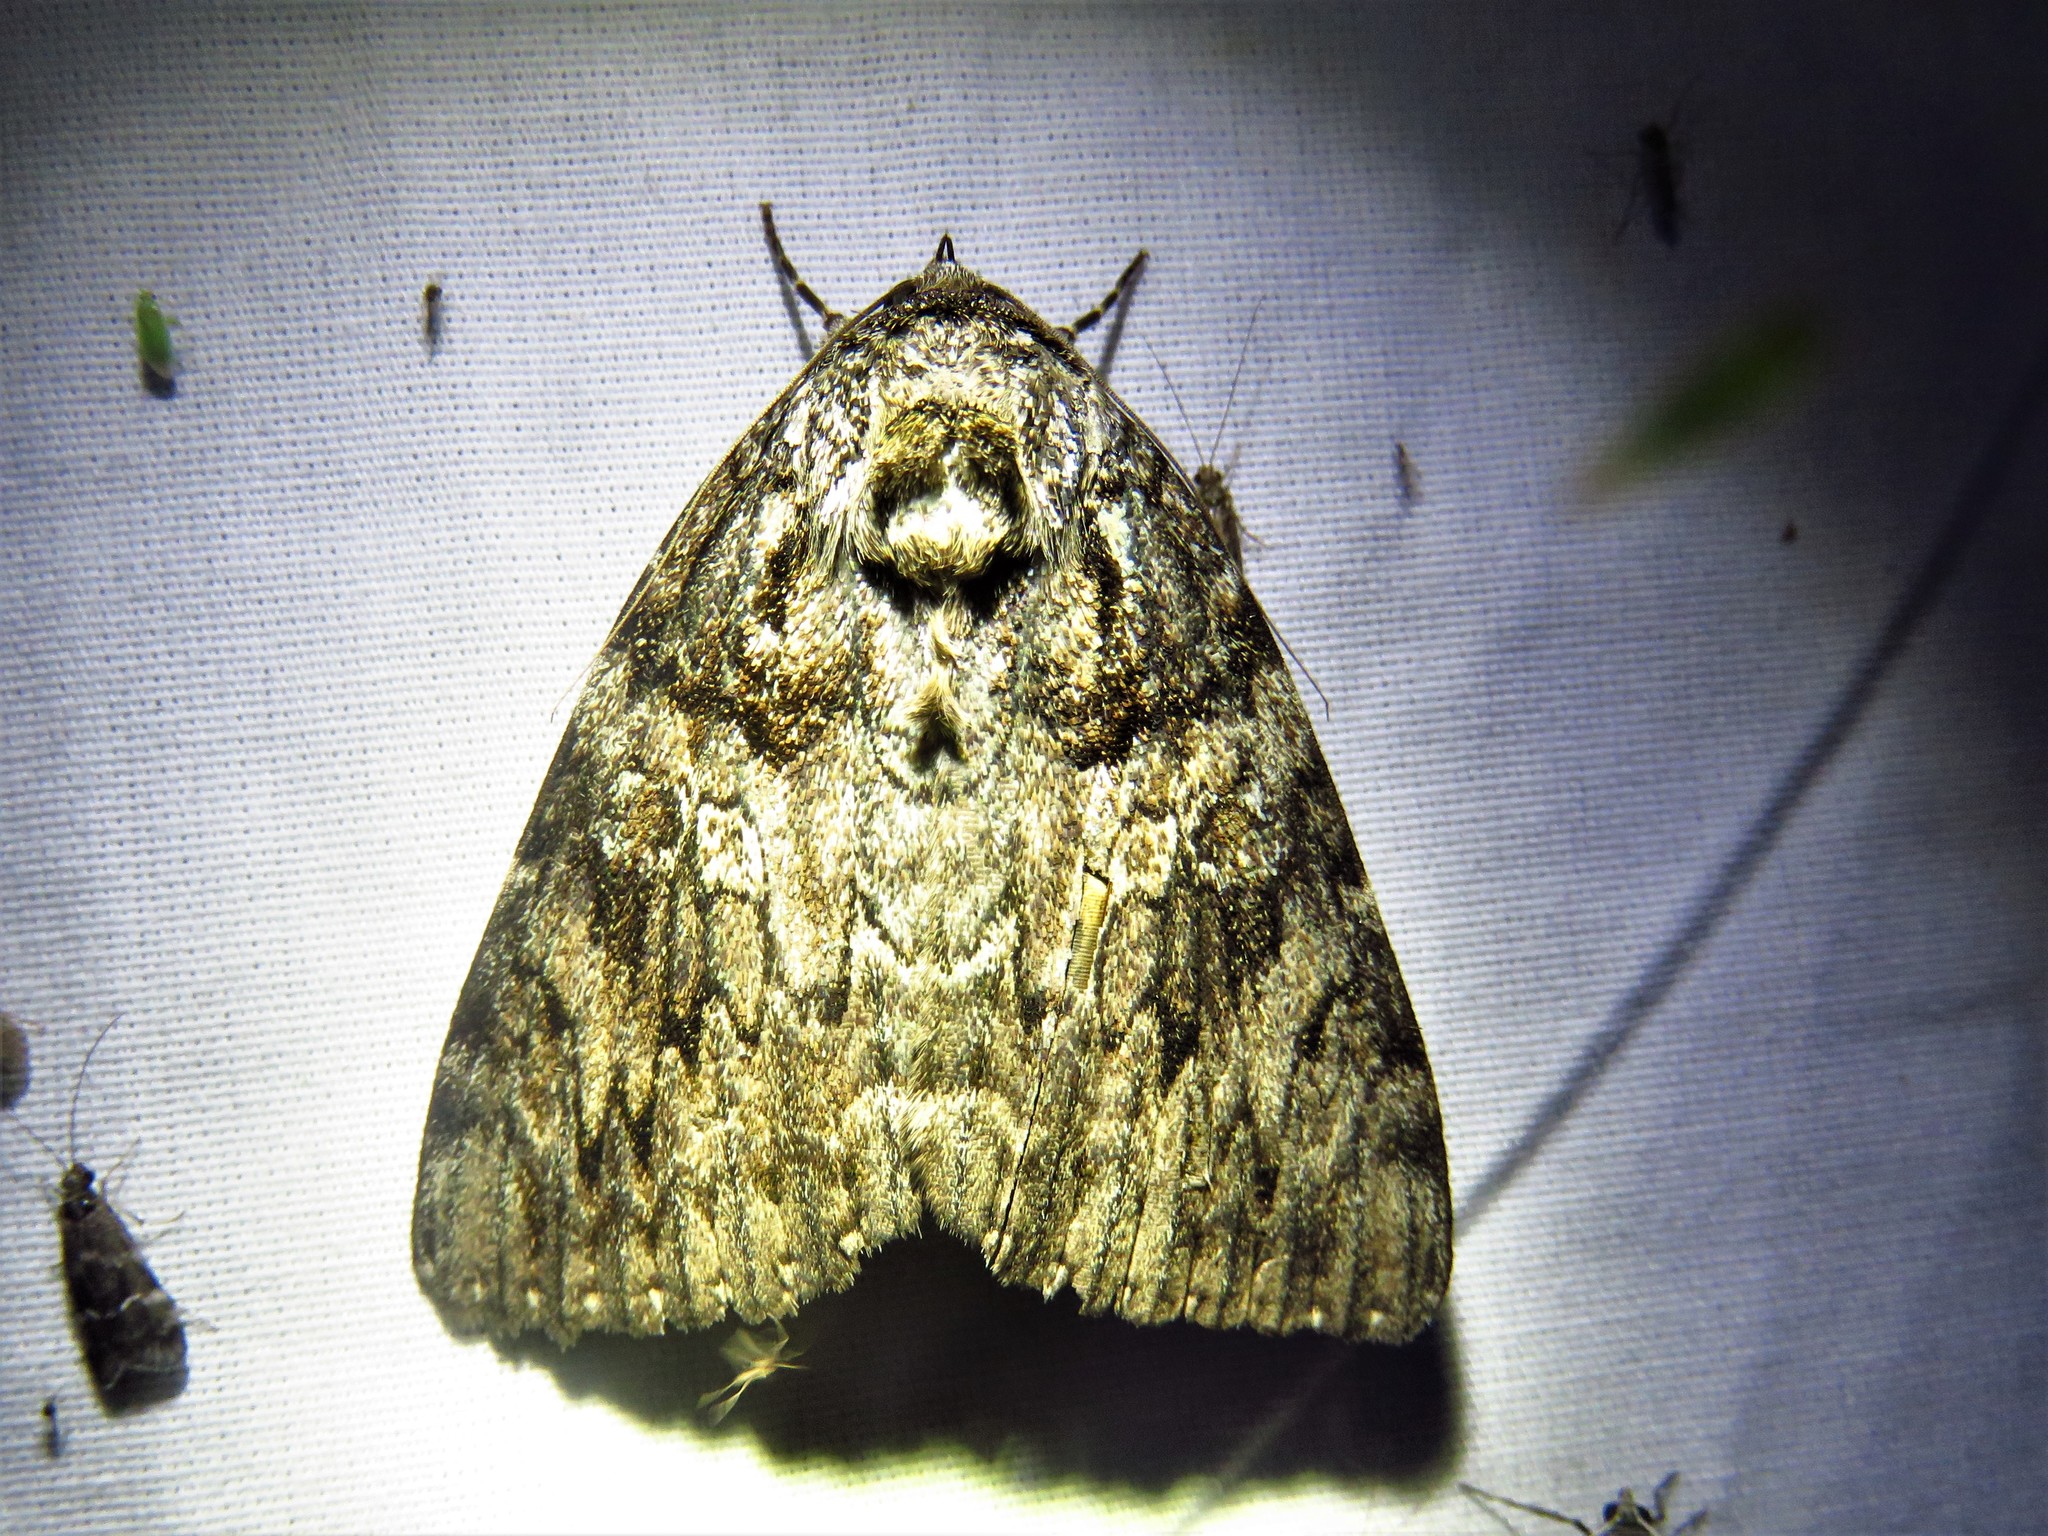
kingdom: Animalia
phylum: Arthropoda
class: Insecta
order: Lepidoptera
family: Erebidae
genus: Catocala
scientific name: Catocala ilia
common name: Ilia underwing
